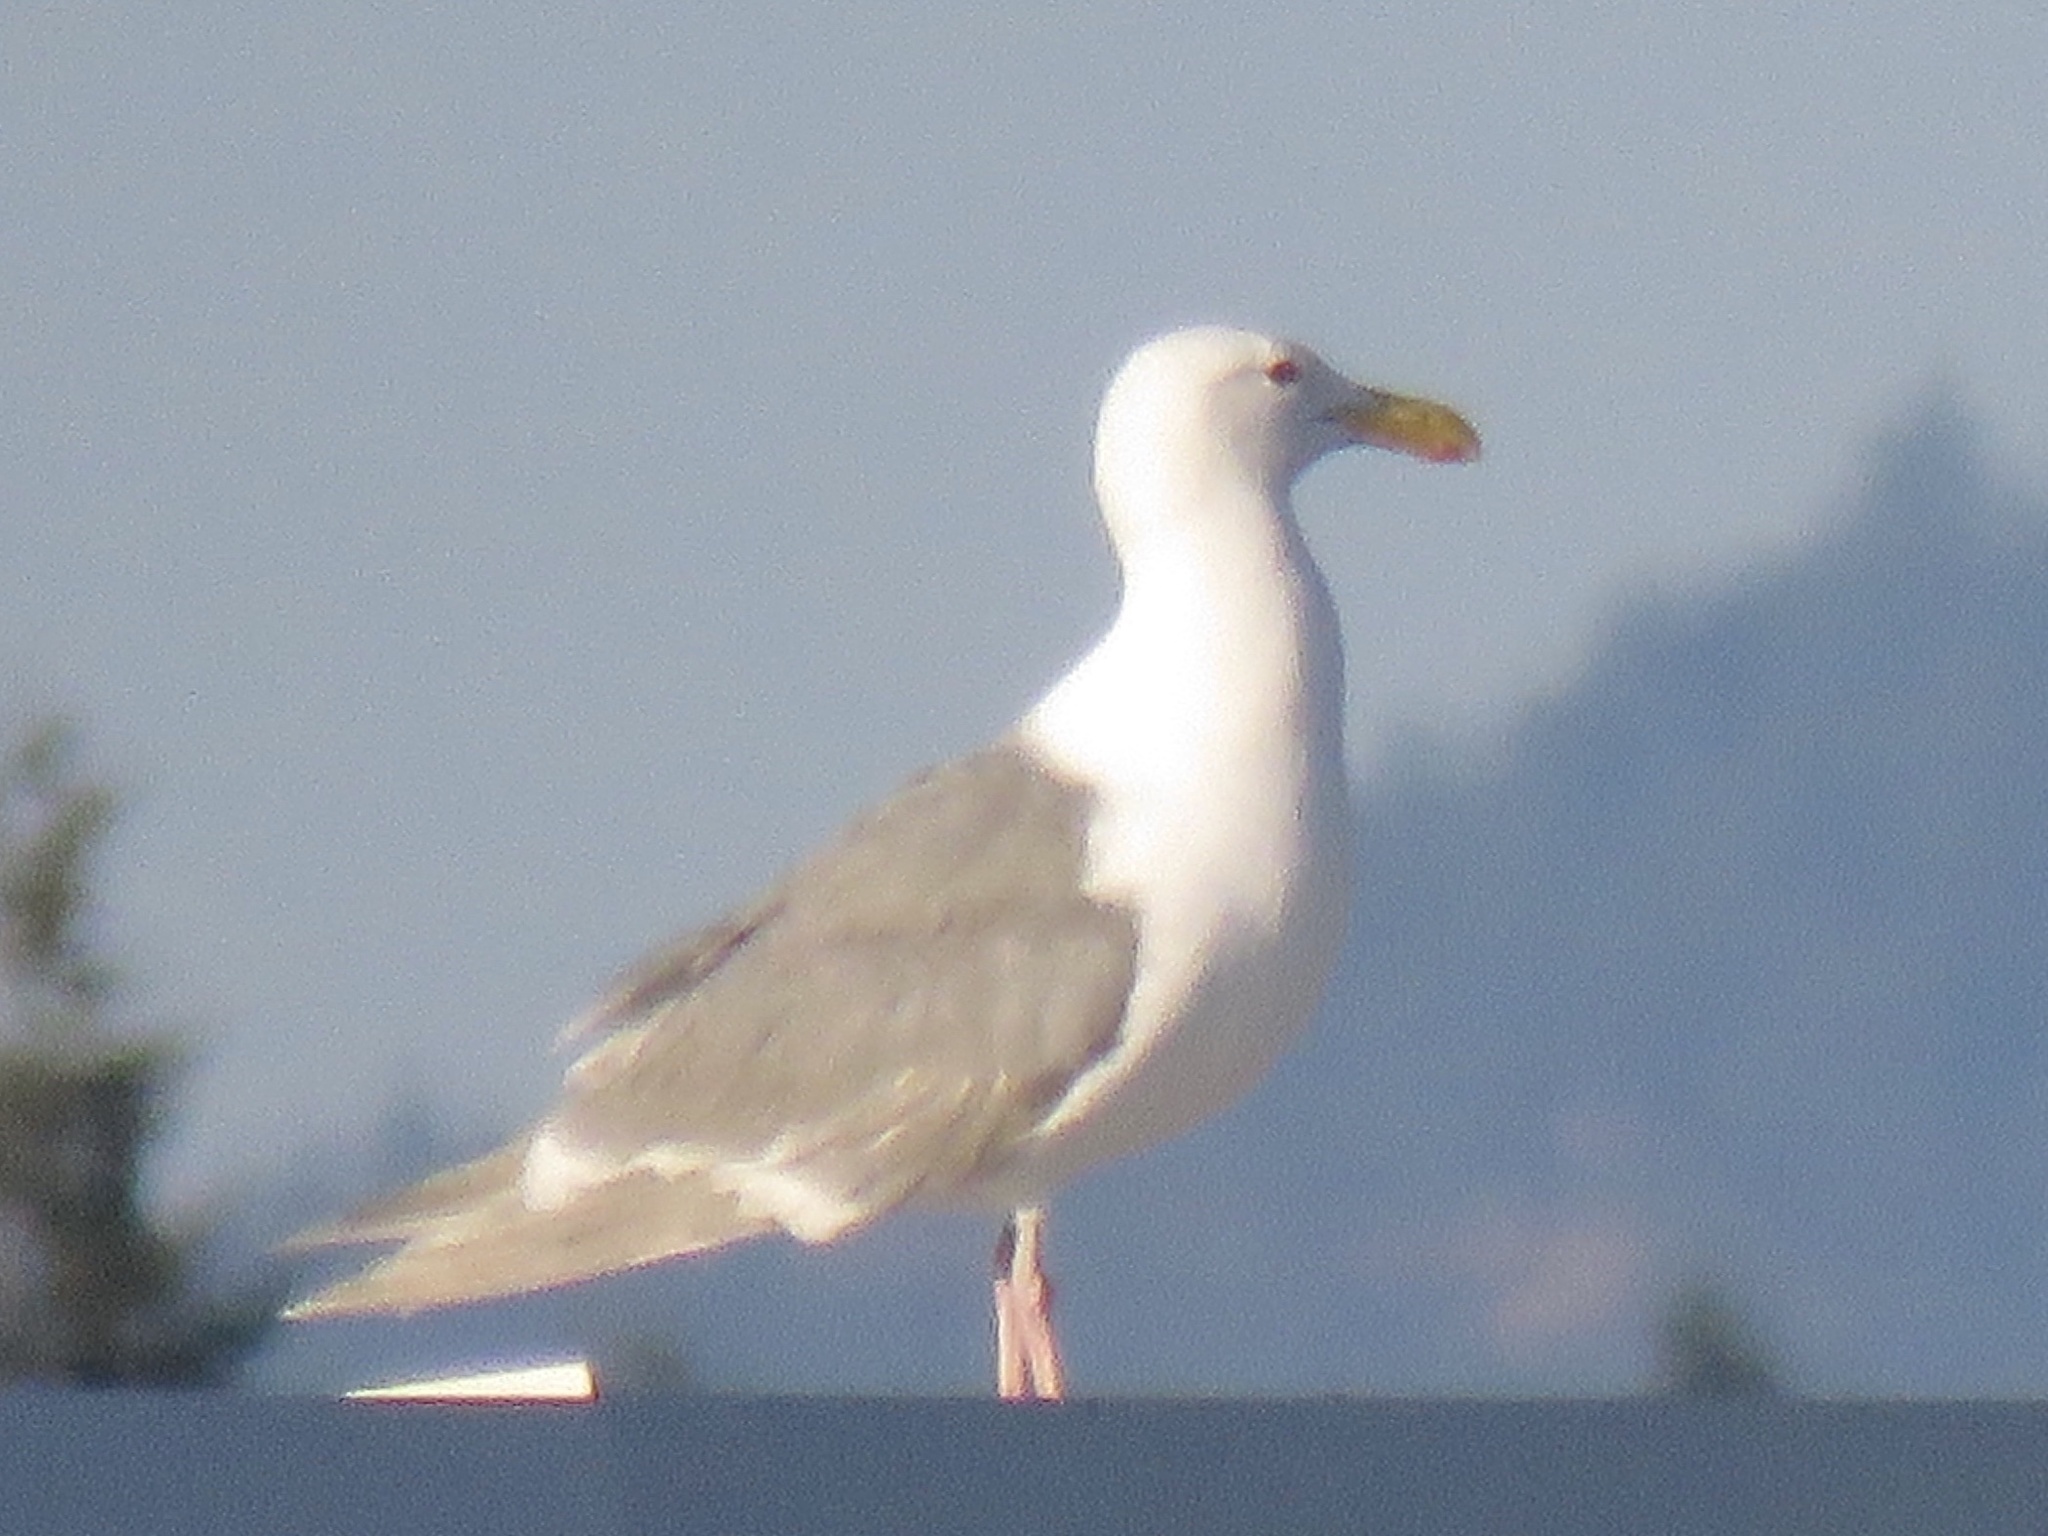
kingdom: Animalia
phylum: Chordata
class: Aves
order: Charadriiformes
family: Laridae
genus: Larus
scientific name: Larus glaucescens
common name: Glaucous-winged gull
